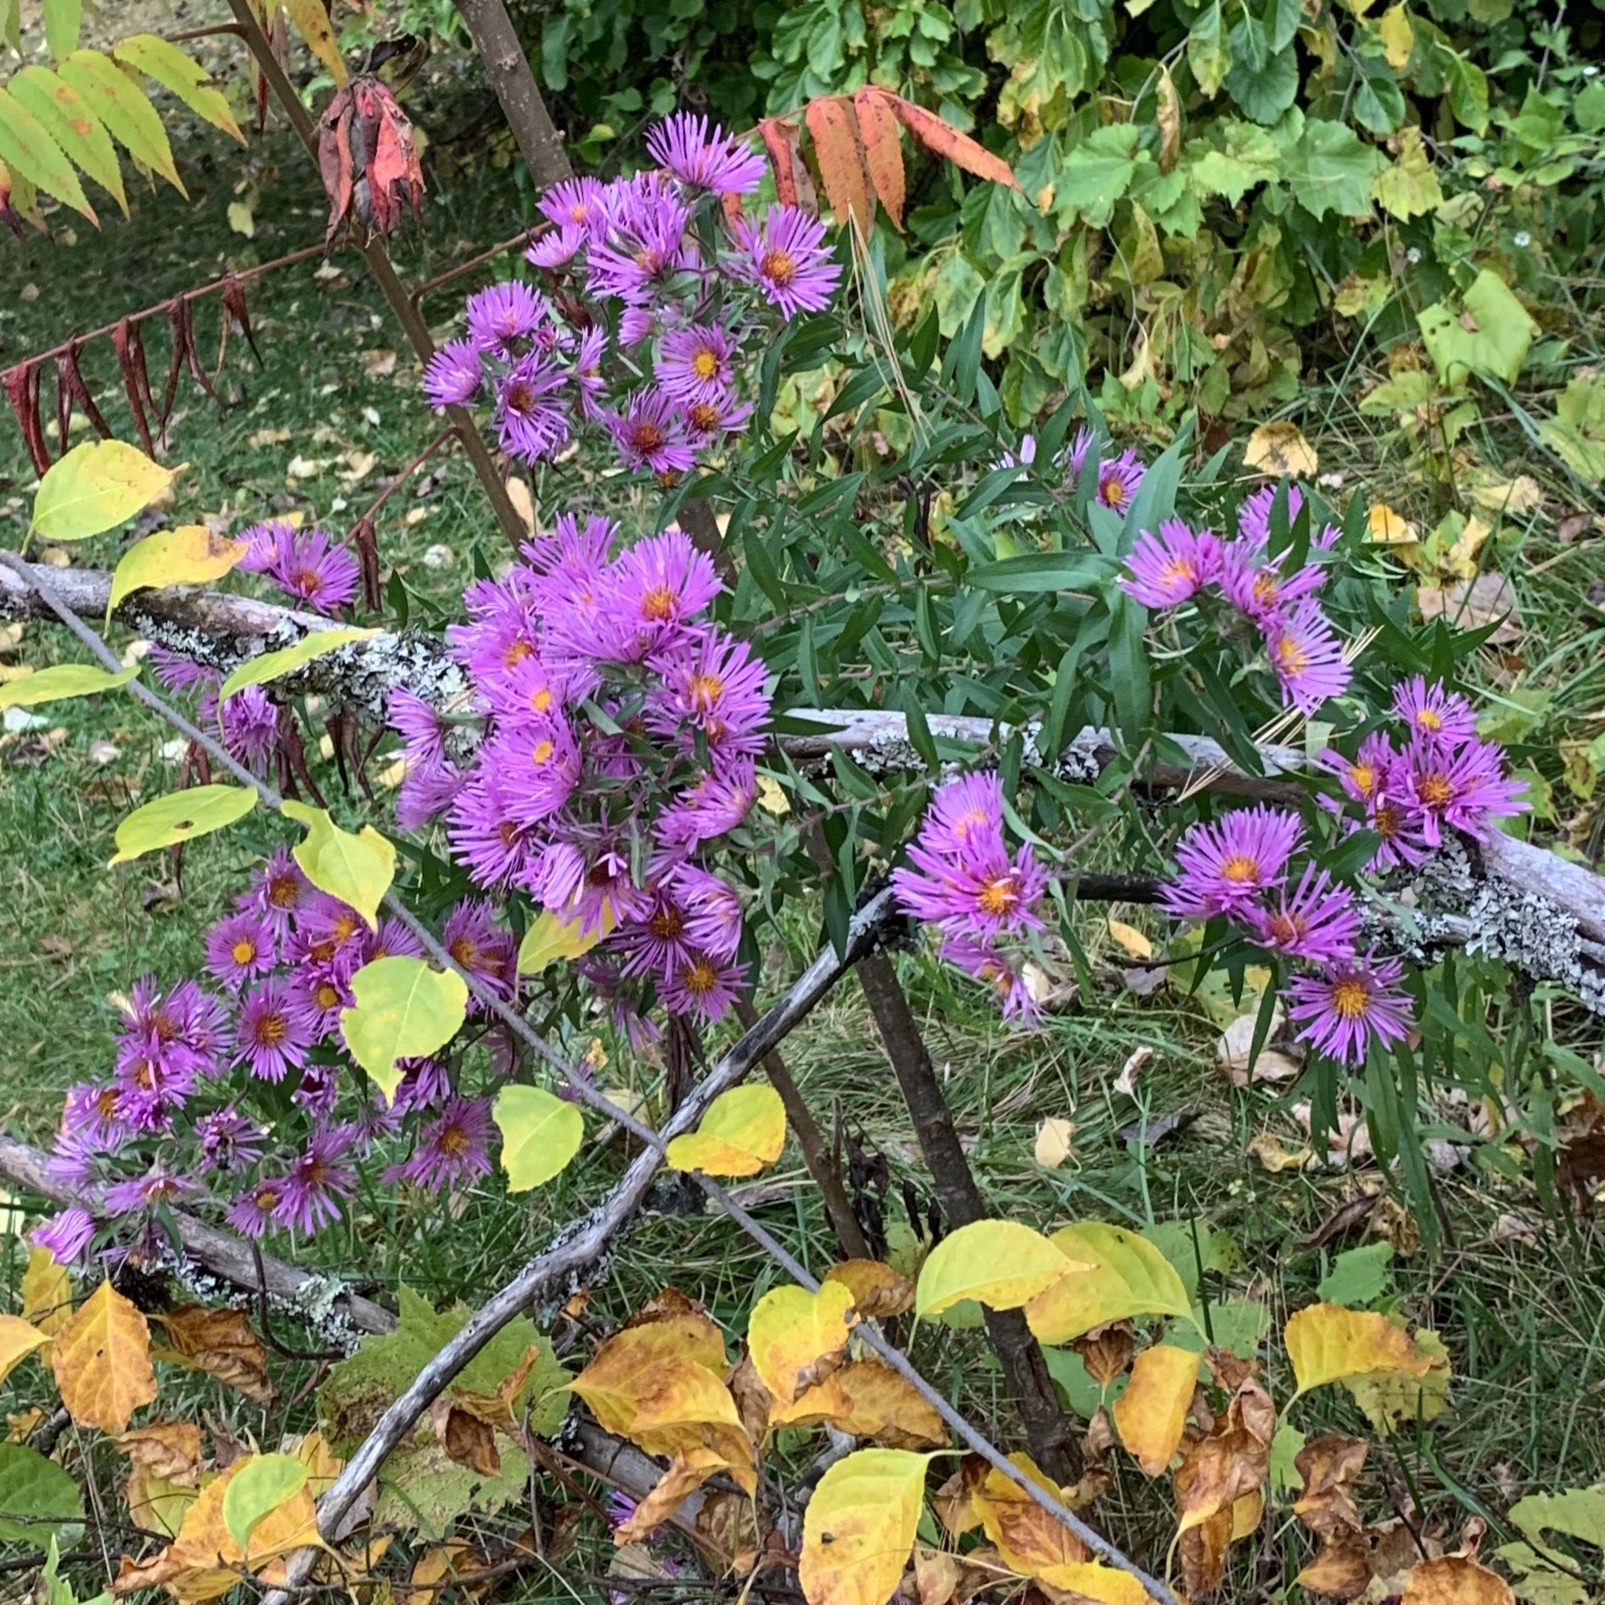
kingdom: Plantae
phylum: Tracheophyta
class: Magnoliopsida
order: Asterales
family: Asteraceae
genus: Symphyotrichum
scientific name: Symphyotrichum novae-angliae
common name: Michaelmas daisy
